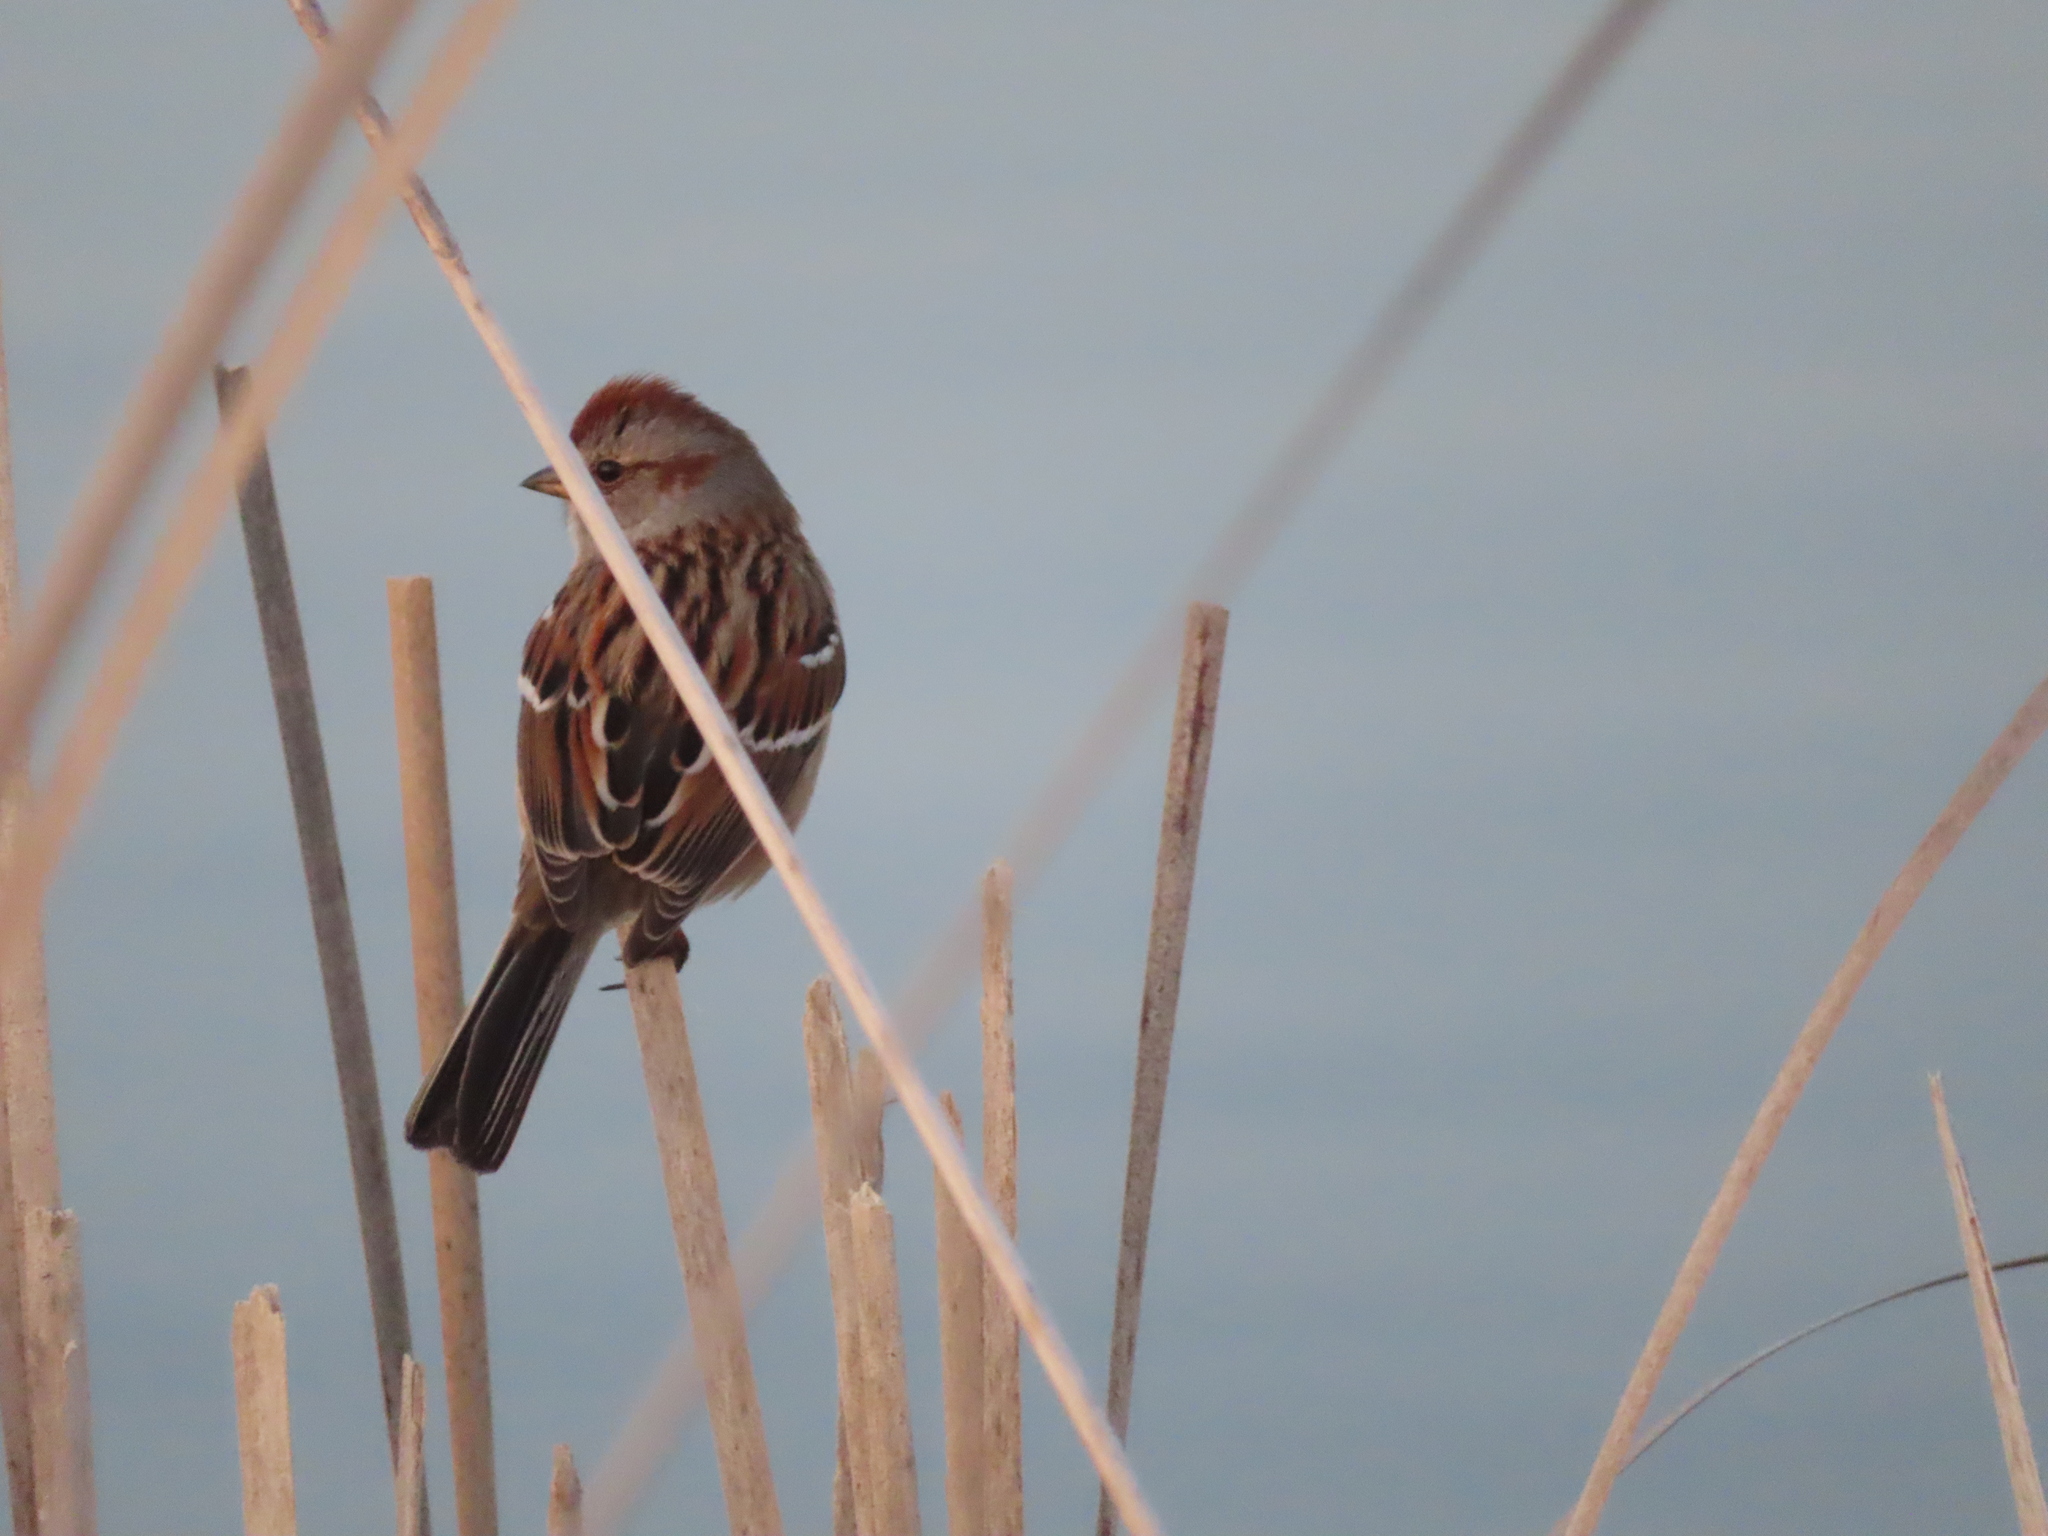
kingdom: Animalia
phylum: Chordata
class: Aves
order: Passeriformes
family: Passerellidae
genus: Spizelloides
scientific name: Spizelloides arborea
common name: American tree sparrow
